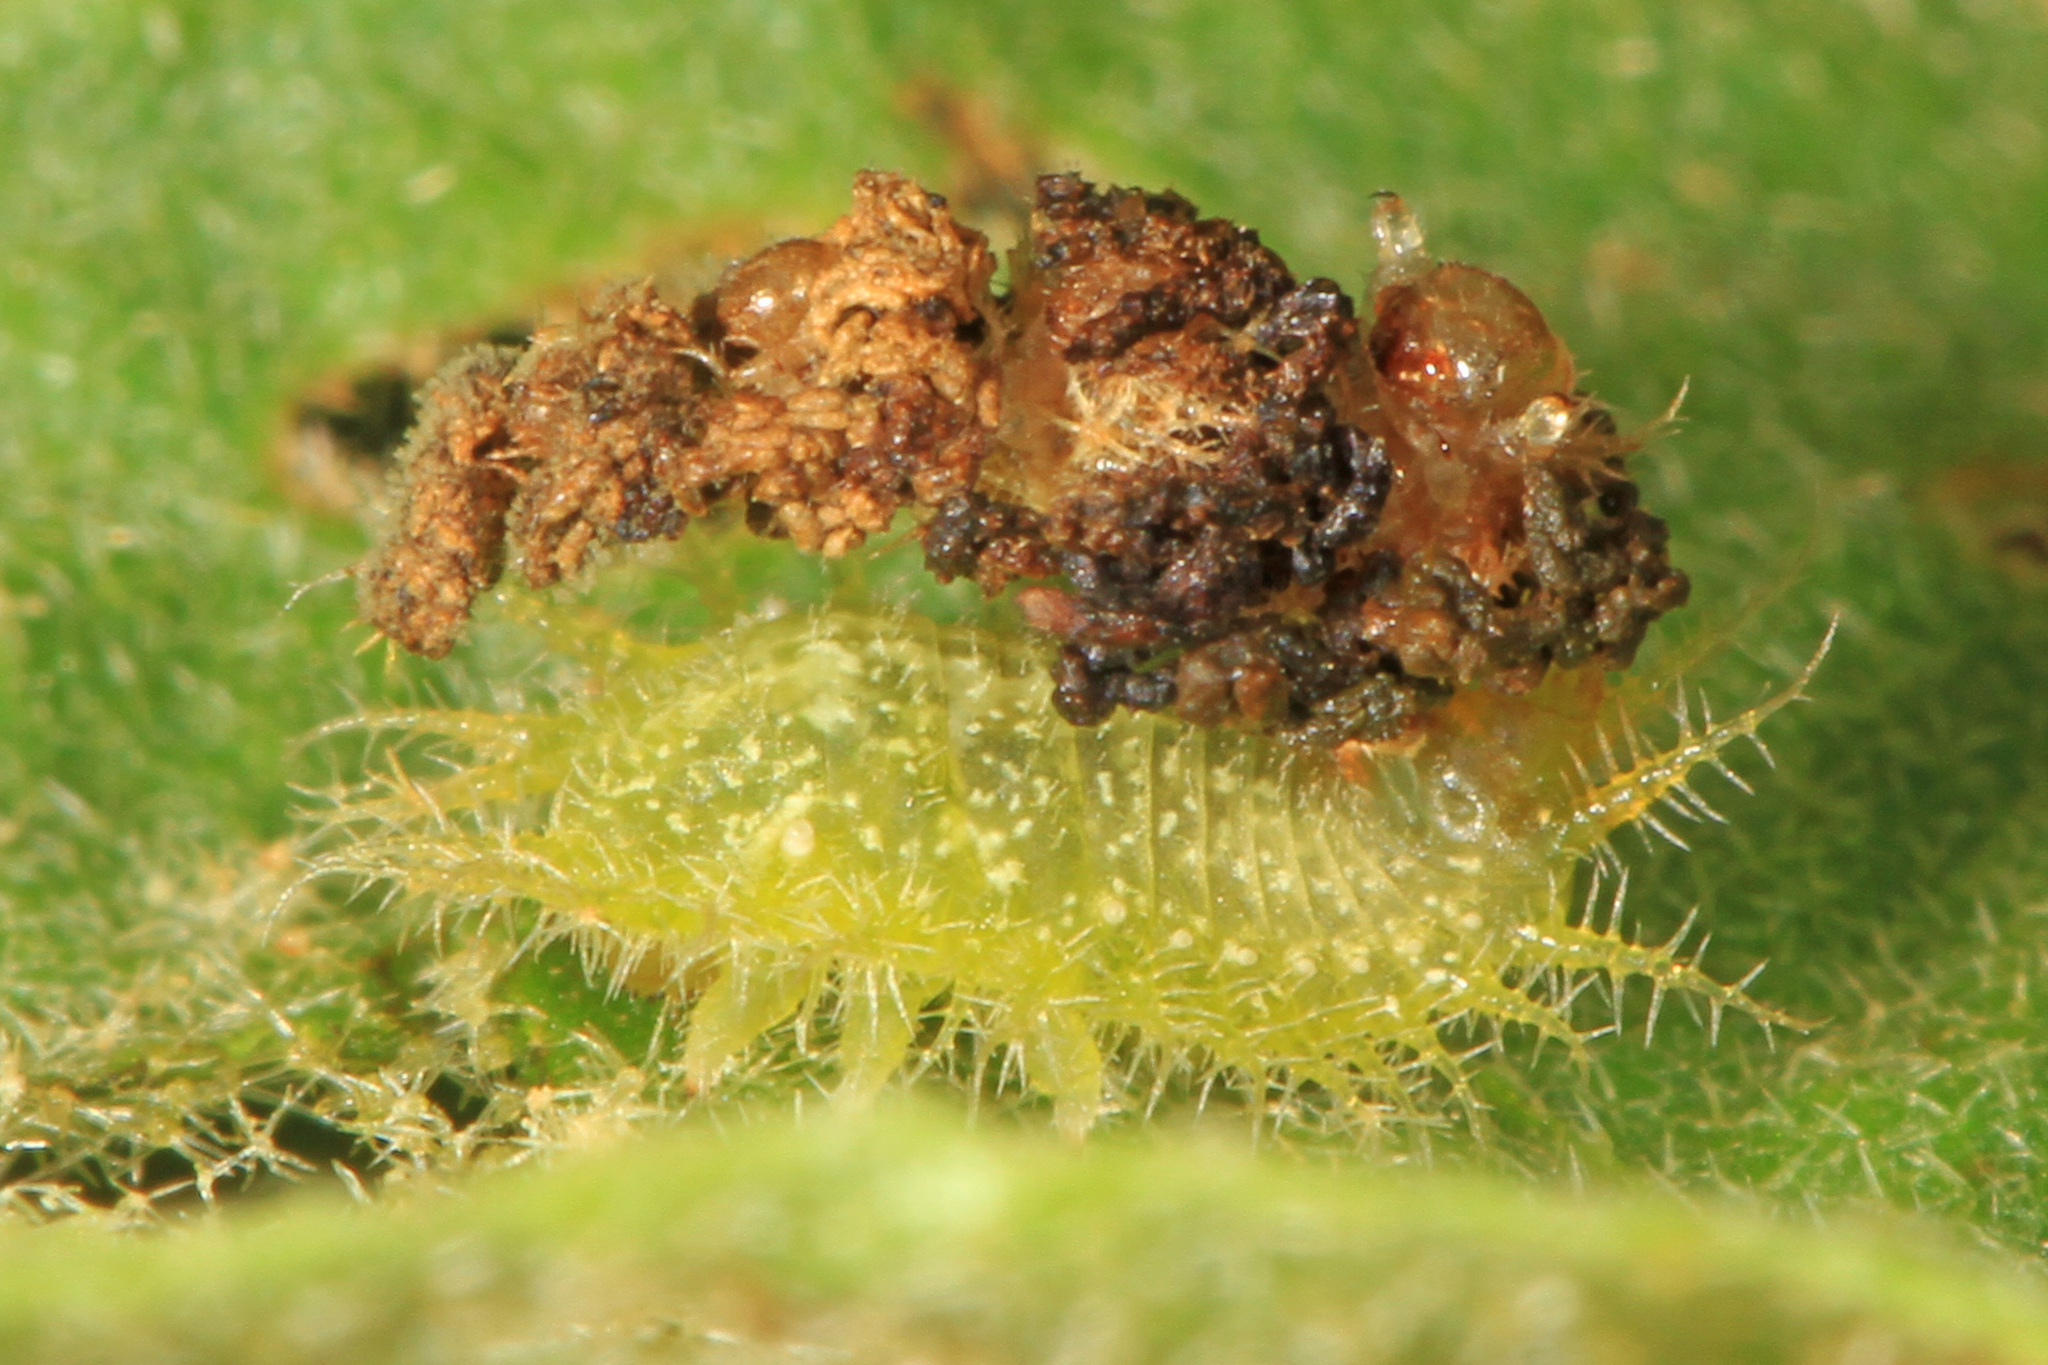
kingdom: Animalia
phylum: Arthropoda
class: Insecta
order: Coleoptera
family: Chrysomelidae
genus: Gratiana
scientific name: Gratiana pallidula
